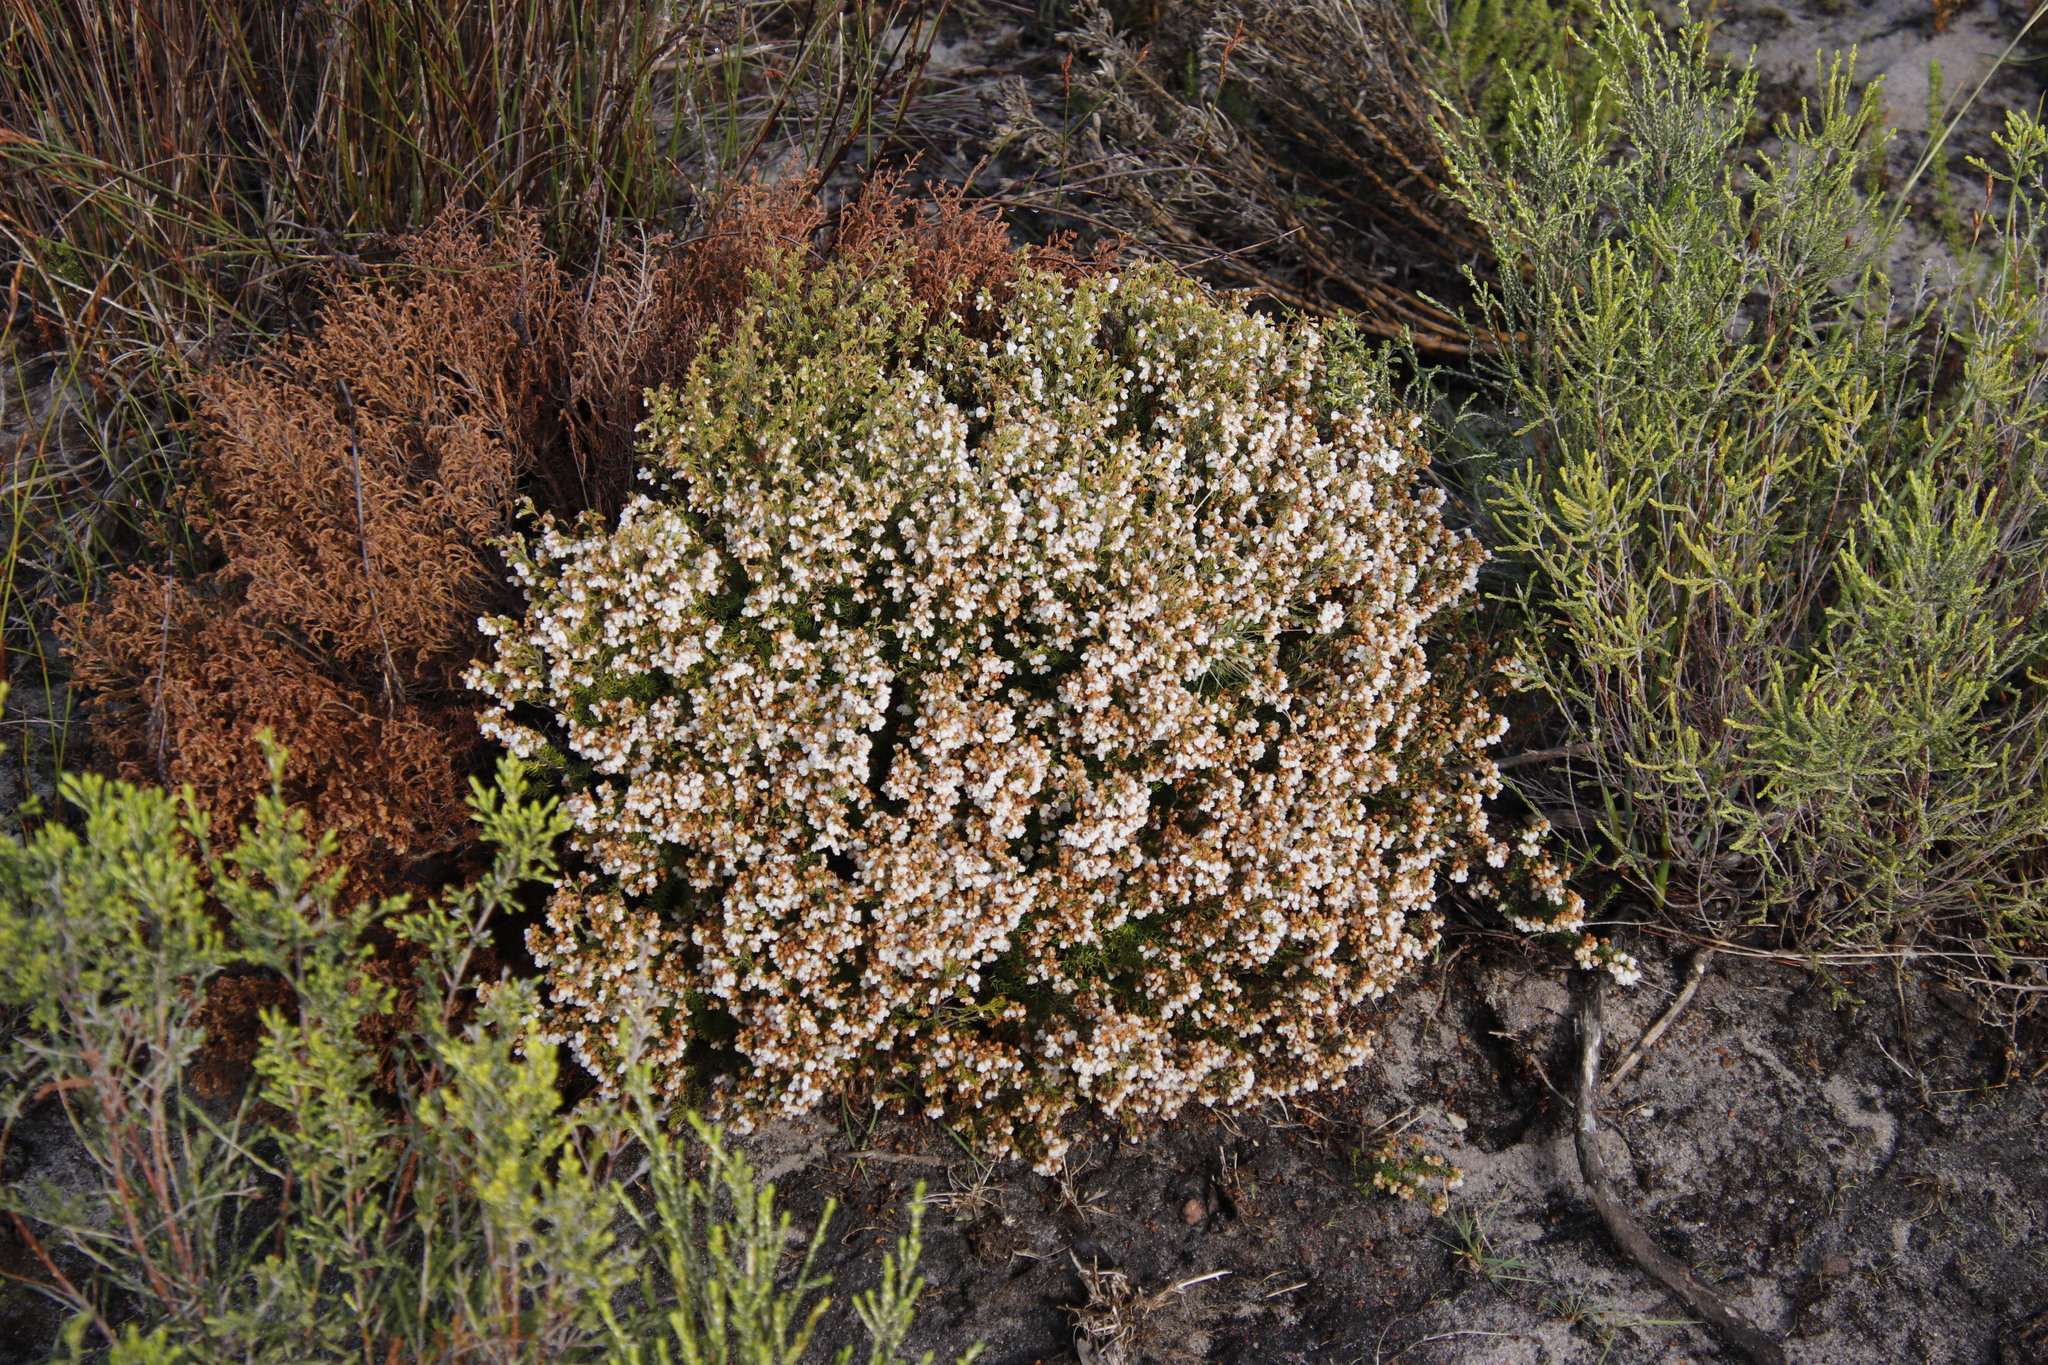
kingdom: Plantae
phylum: Tracheophyta
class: Magnoliopsida
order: Ericales
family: Ericaceae
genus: Erica
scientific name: Erica capensis
